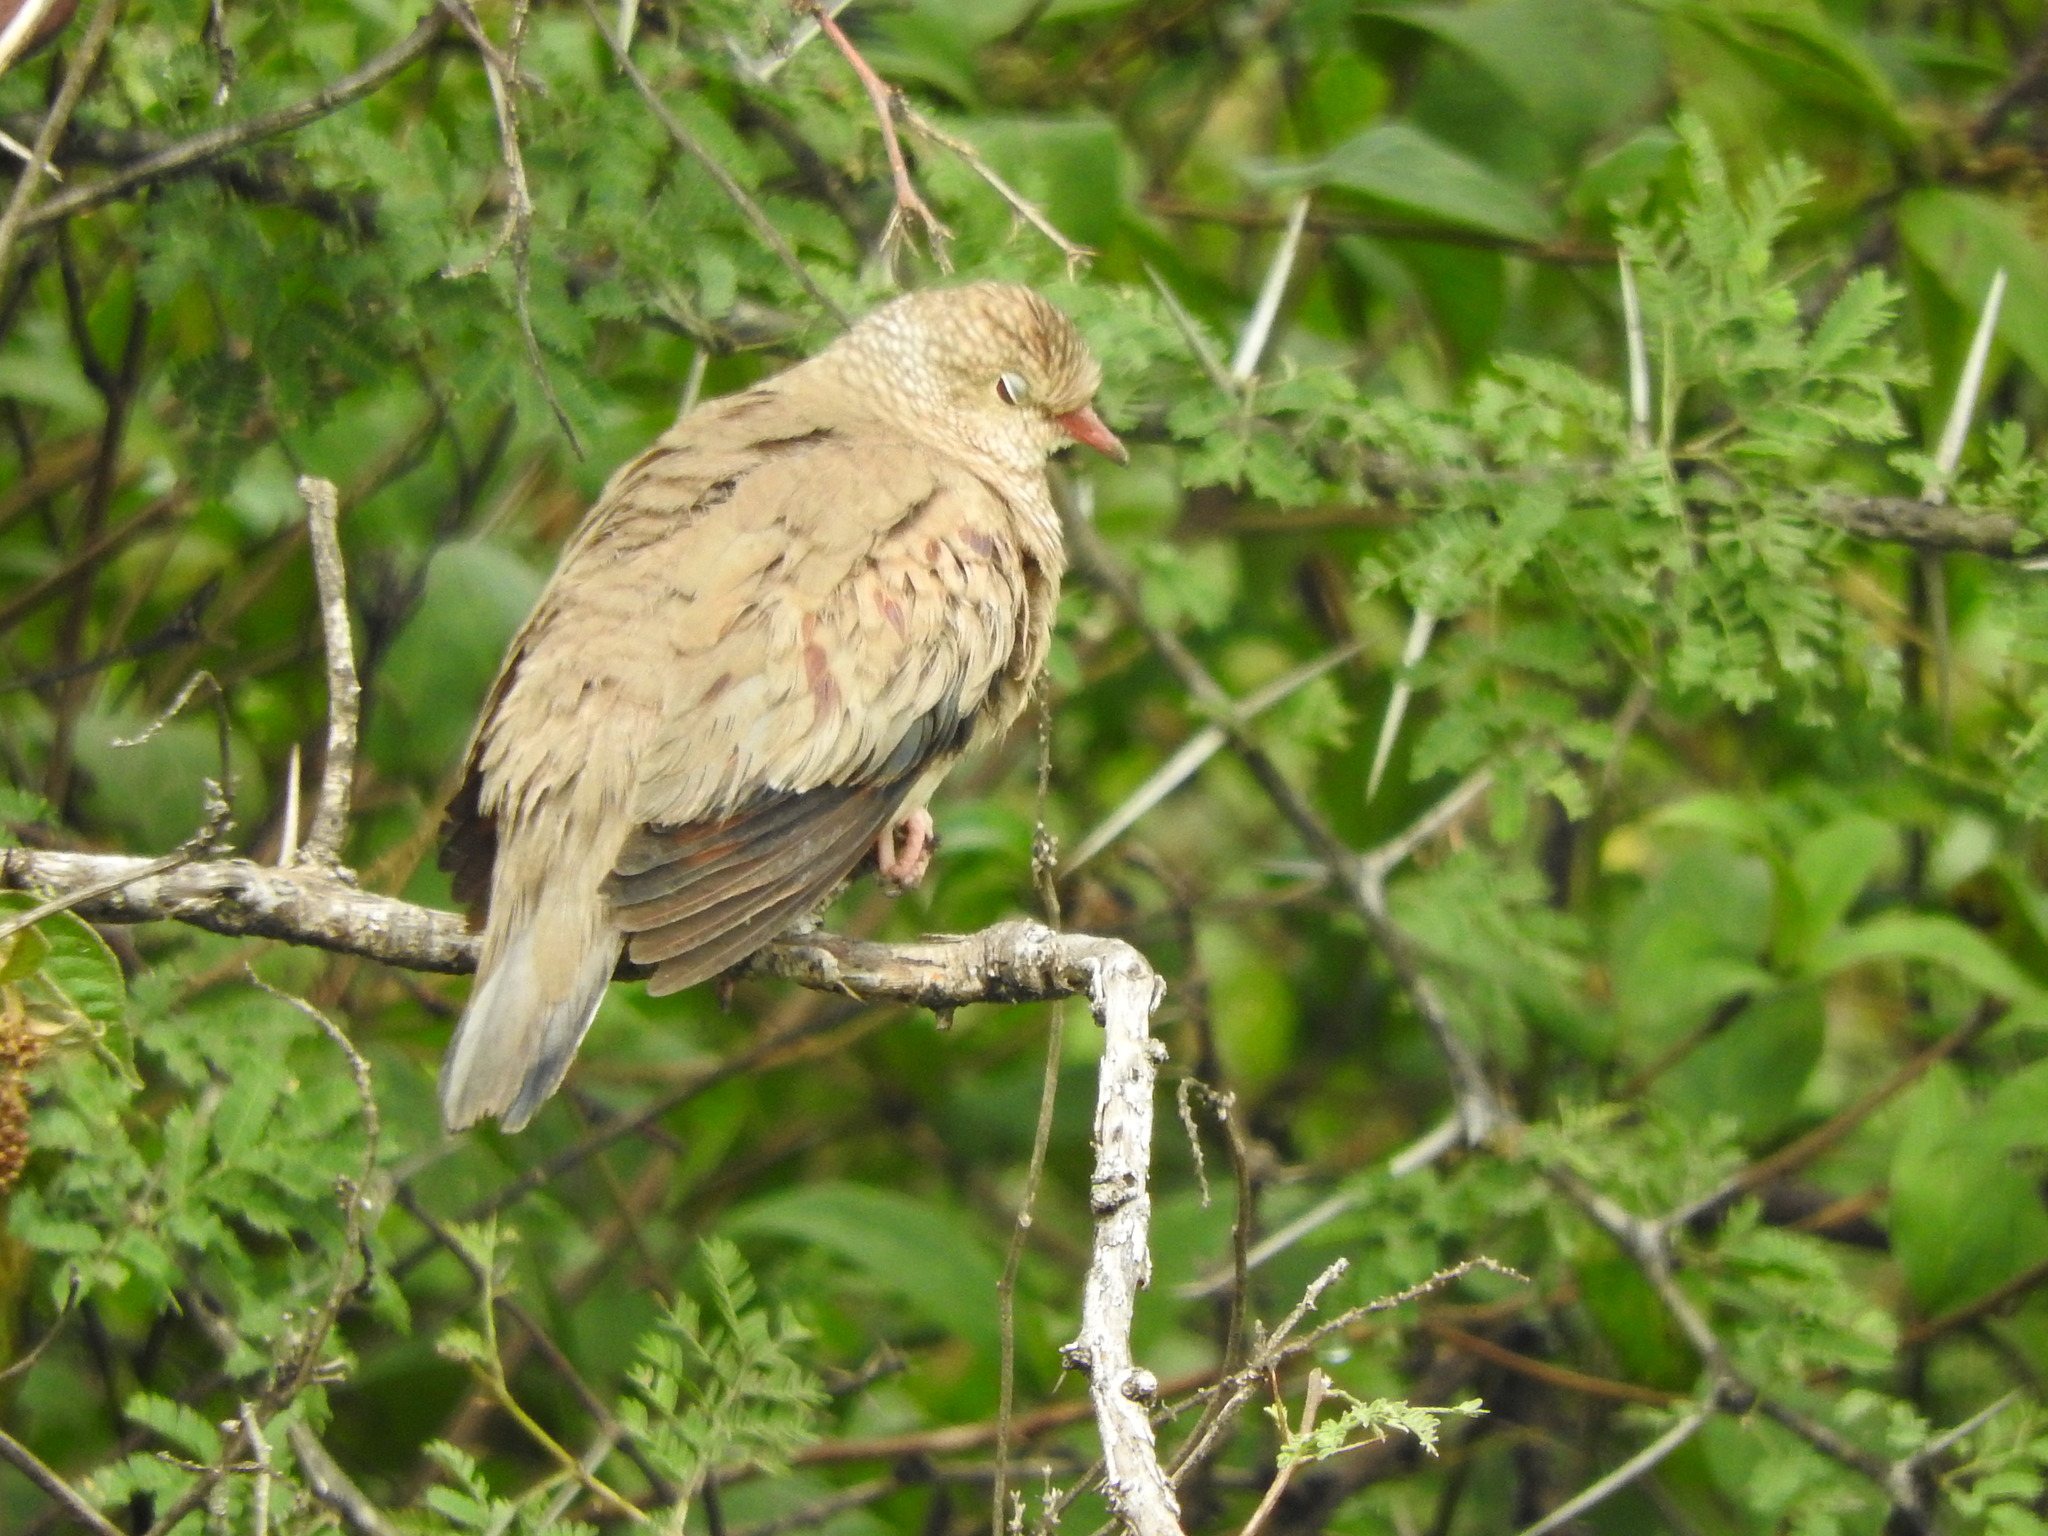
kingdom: Animalia
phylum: Chordata
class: Aves
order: Columbiformes
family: Columbidae
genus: Columbina
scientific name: Columbina passerina
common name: Common ground-dove
